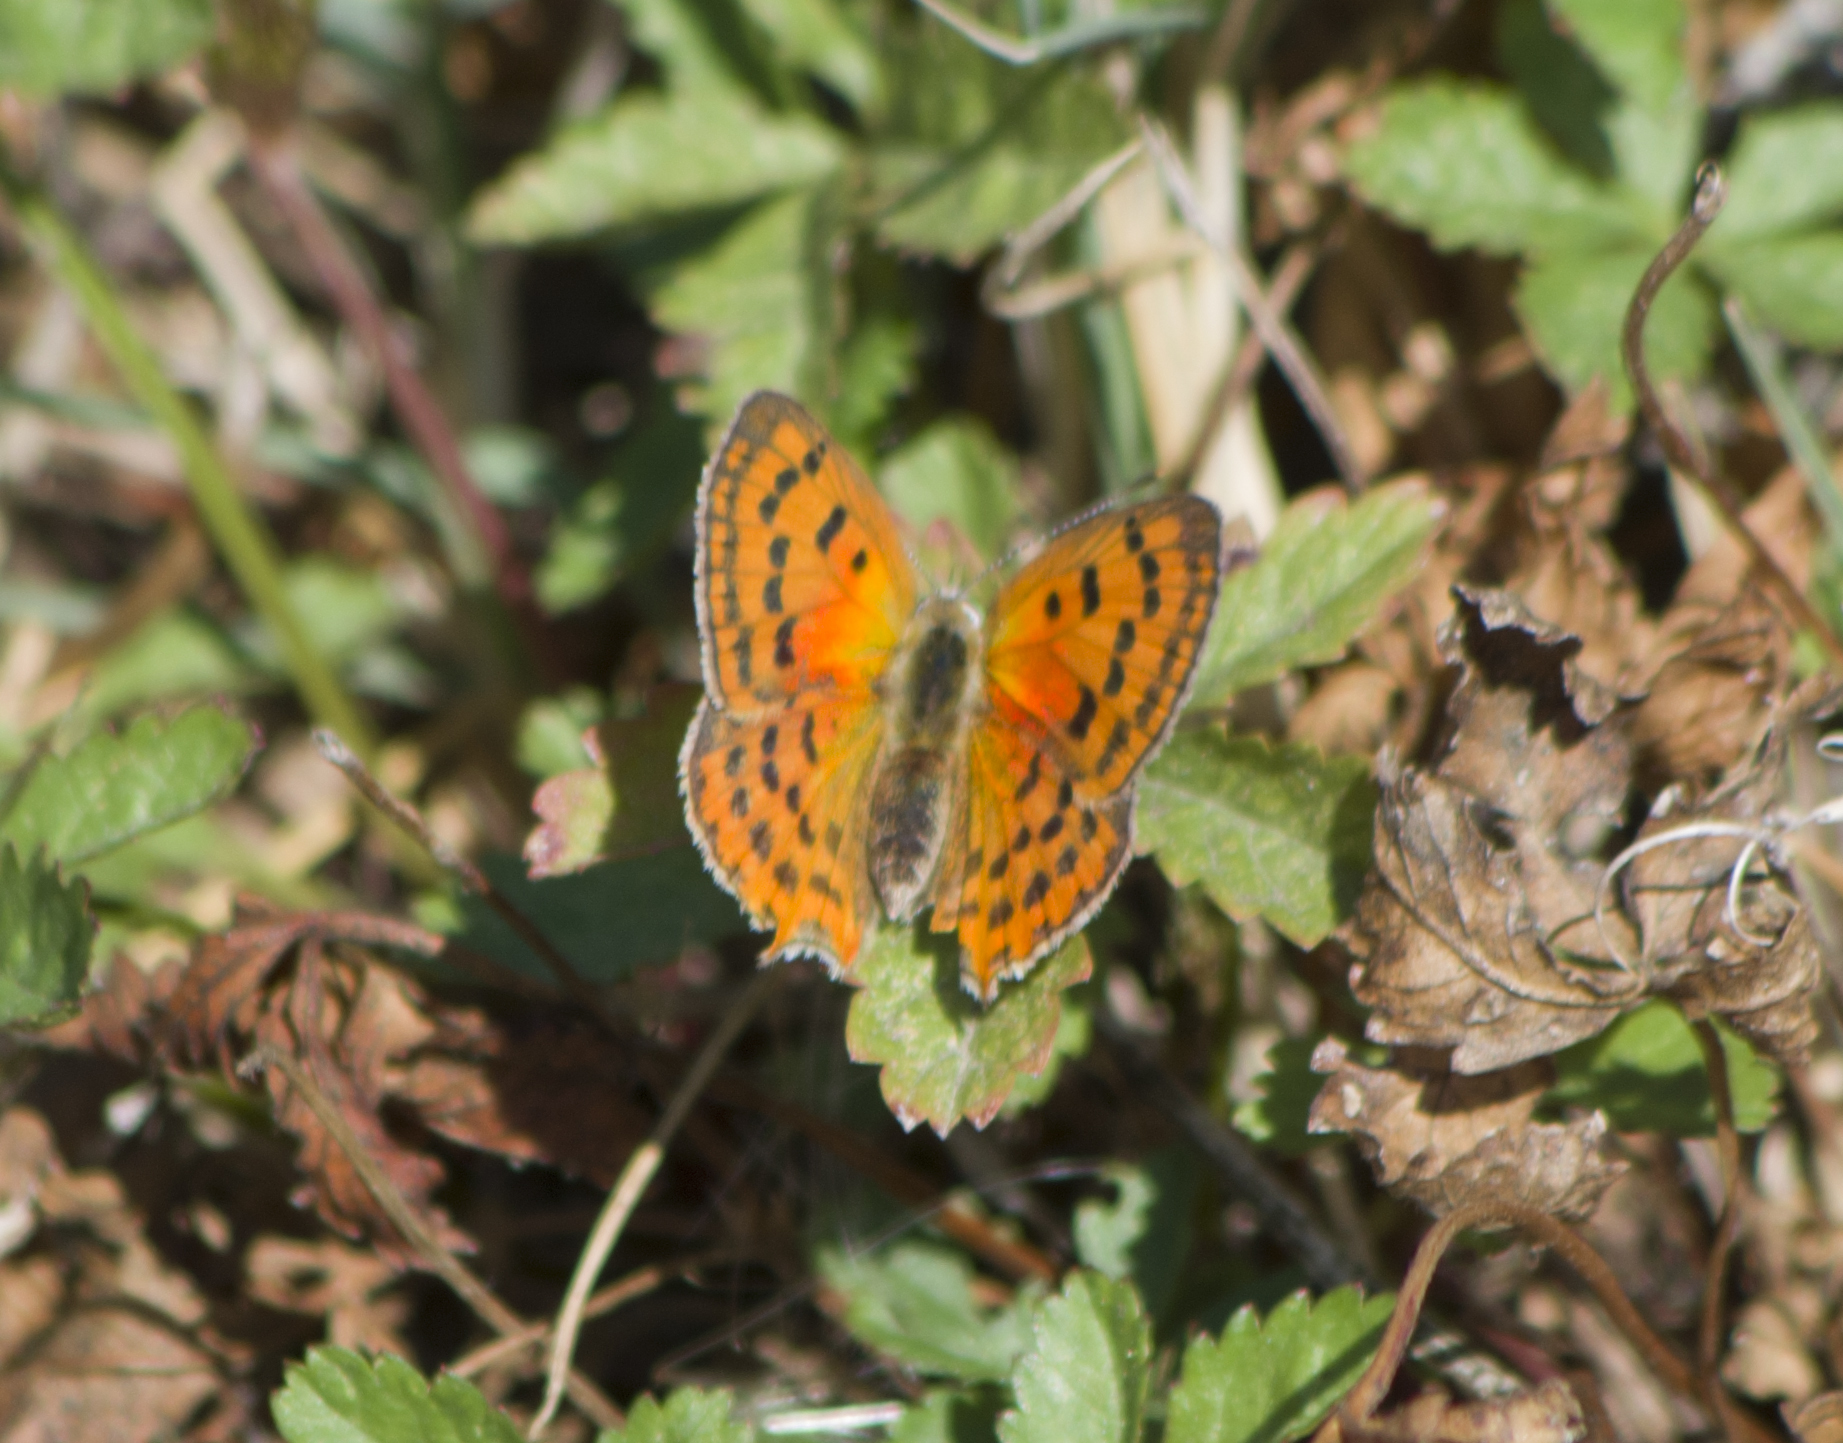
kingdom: Animalia
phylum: Arthropoda
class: Insecta
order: Lepidoptera
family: Lycaenidae
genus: Polyommatus
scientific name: Polyommatus ottomanus
